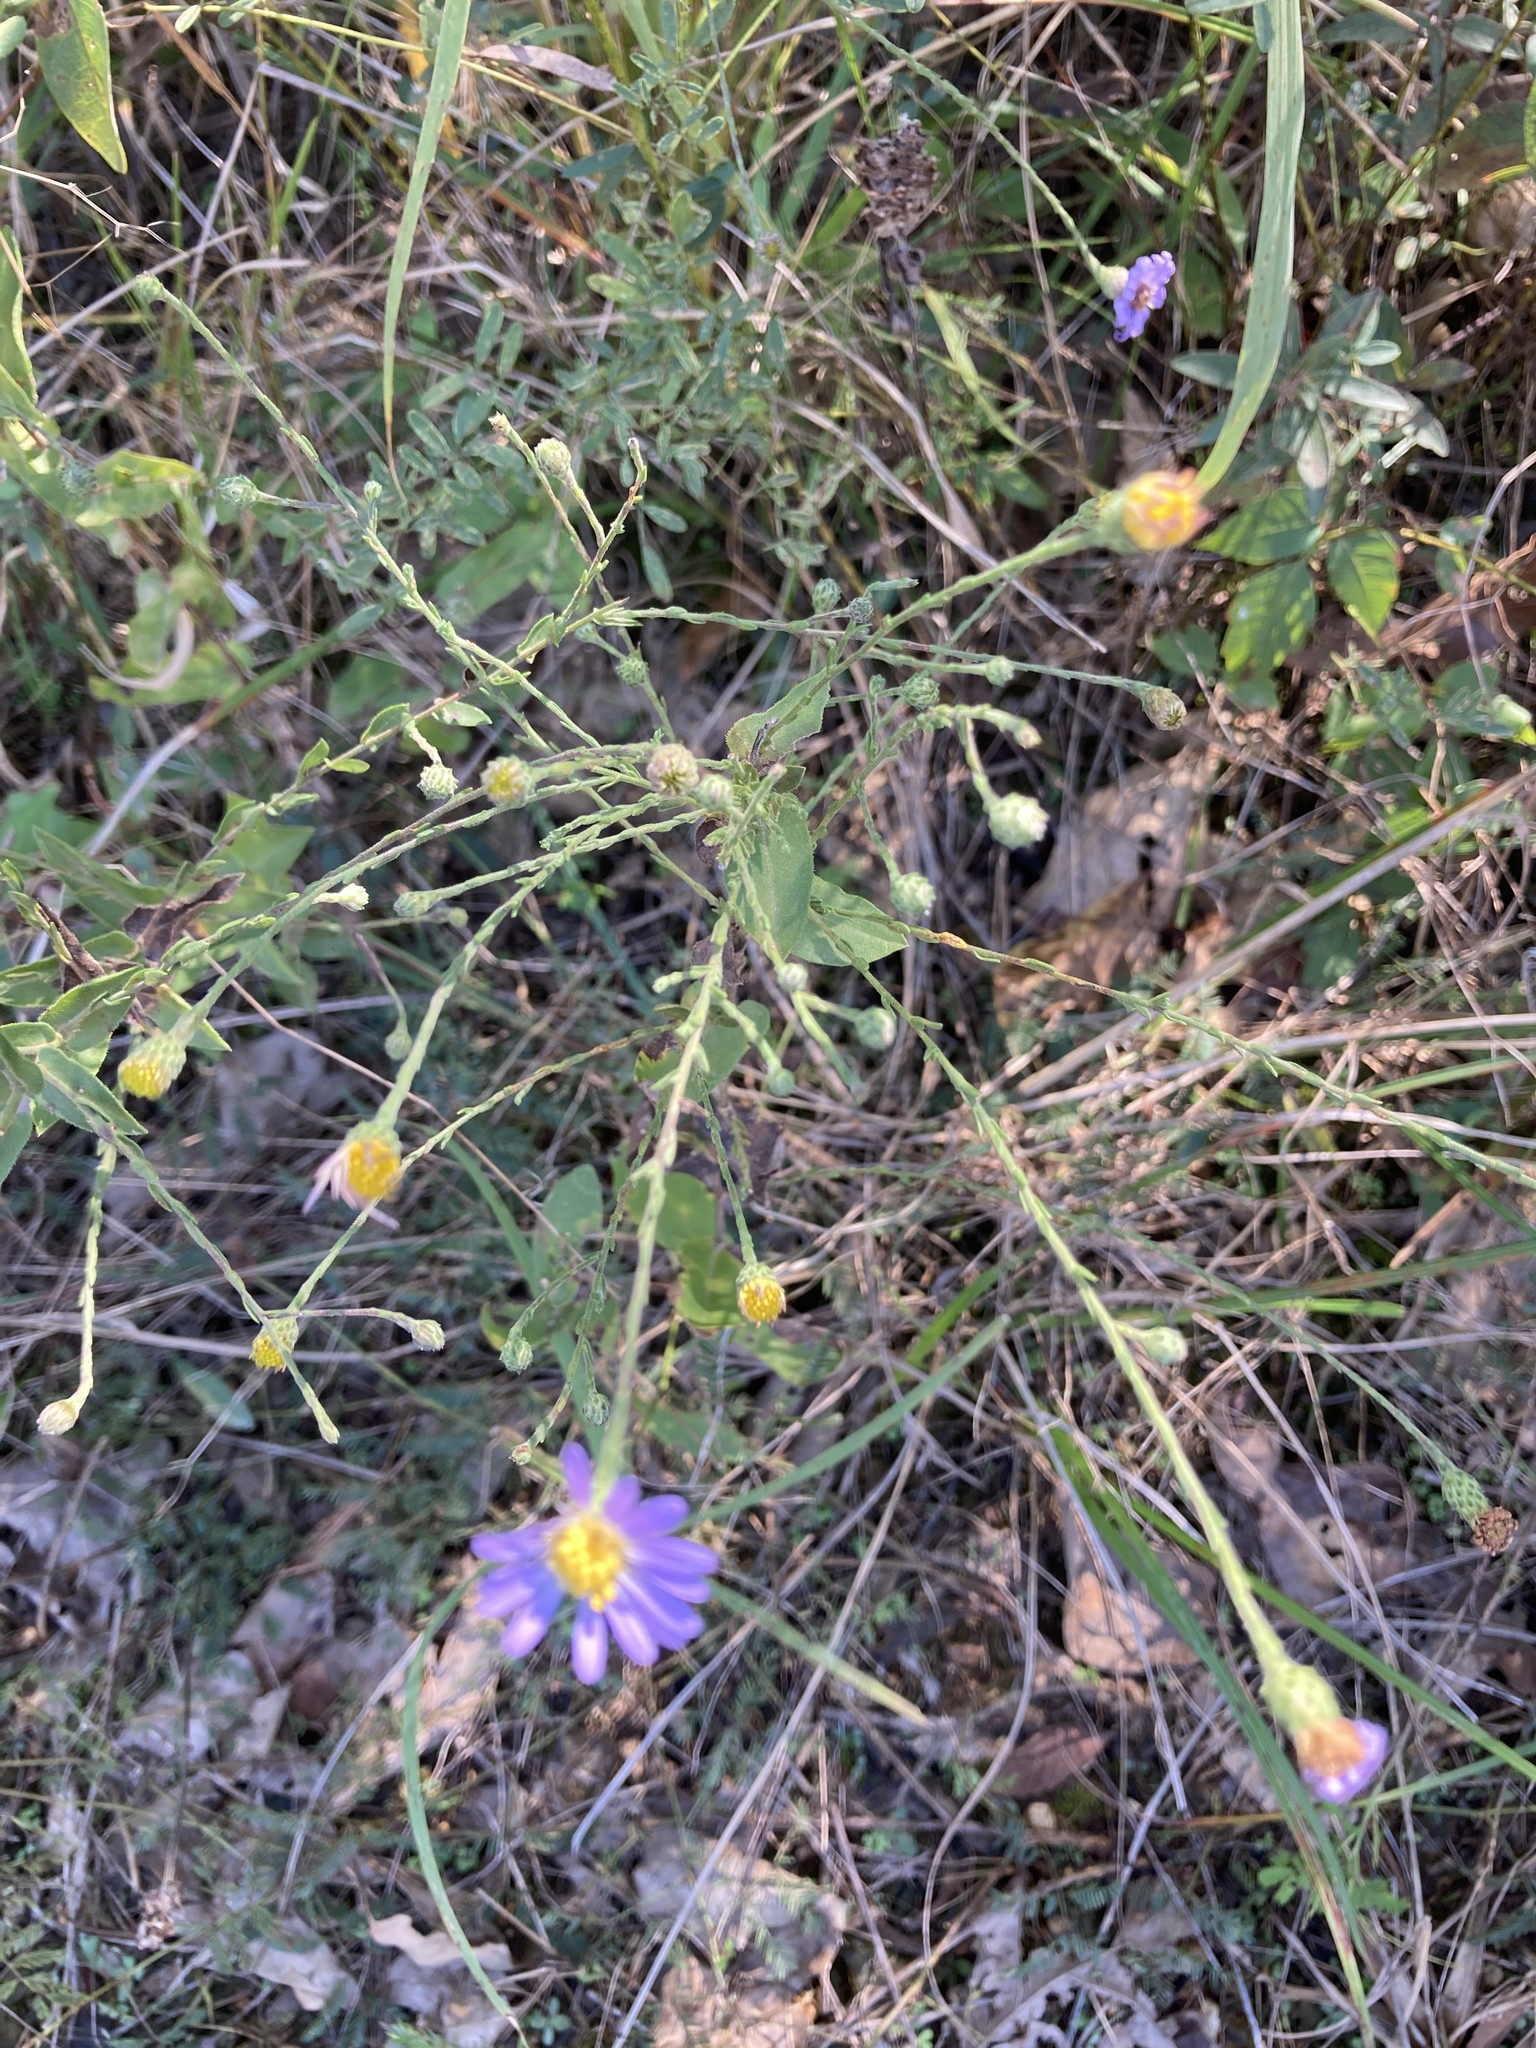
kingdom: Plantae
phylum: Tracheophyta
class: Magnoliopsida
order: Asterales
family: Asteraceae
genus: Symphyotrichum
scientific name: Symphyotrichum patens
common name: Late purple aster
